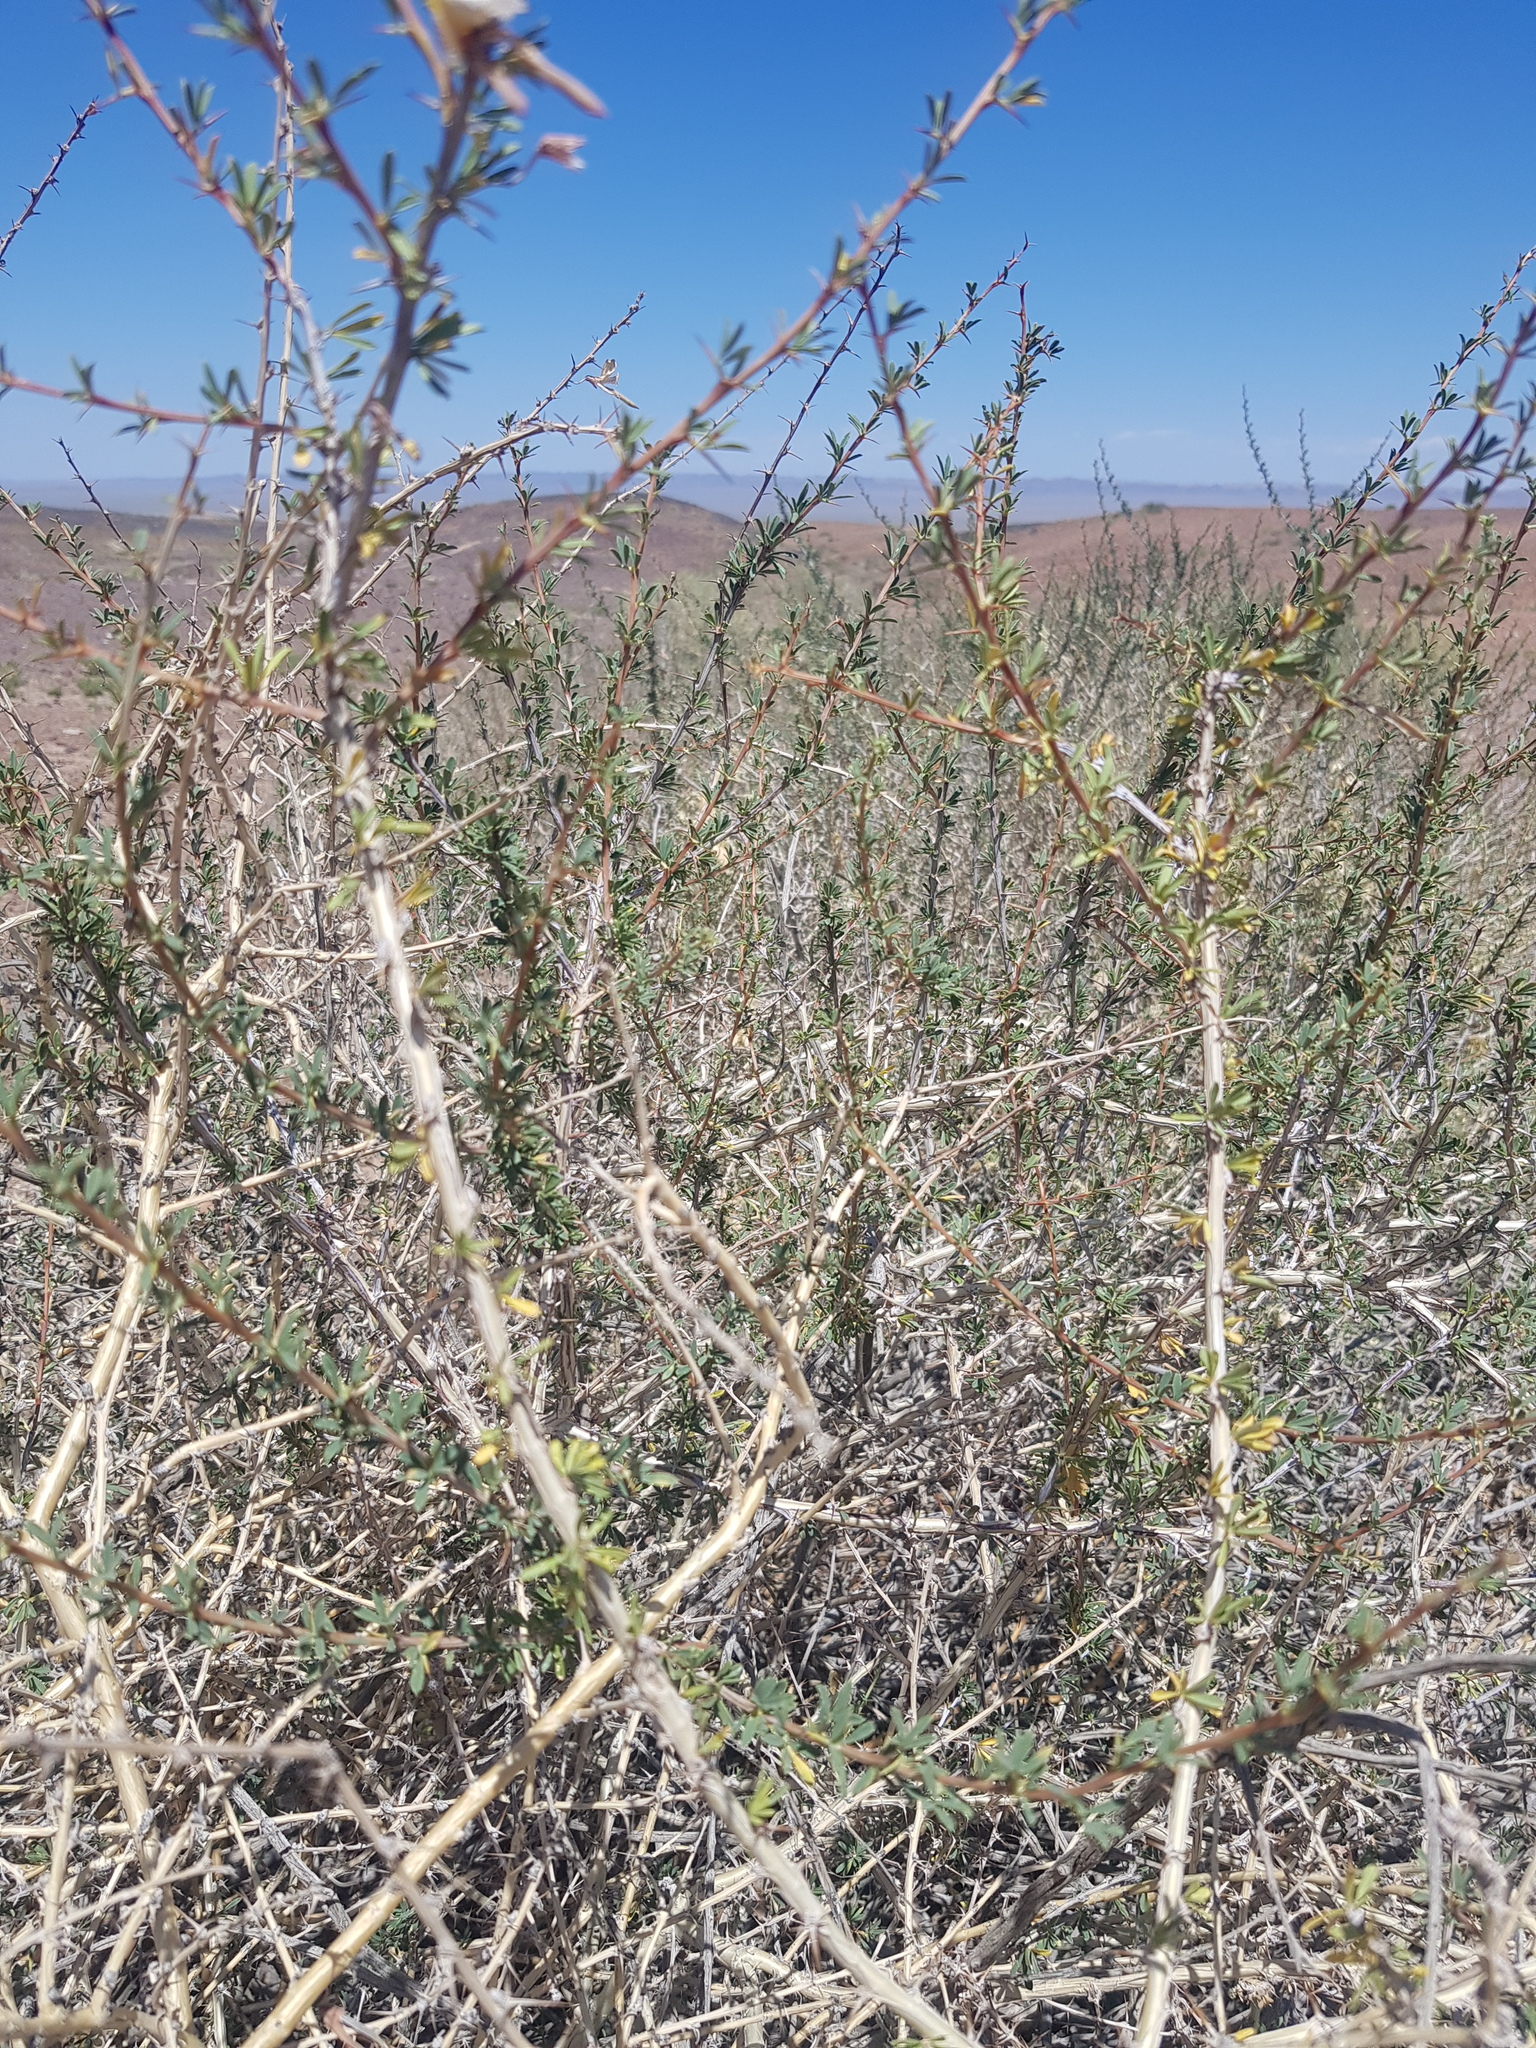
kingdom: Plantae
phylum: Tracheophyta
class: Magnoliopsida
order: Fabales
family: Fabaceae
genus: Caragana
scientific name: Caragana leucophloea
